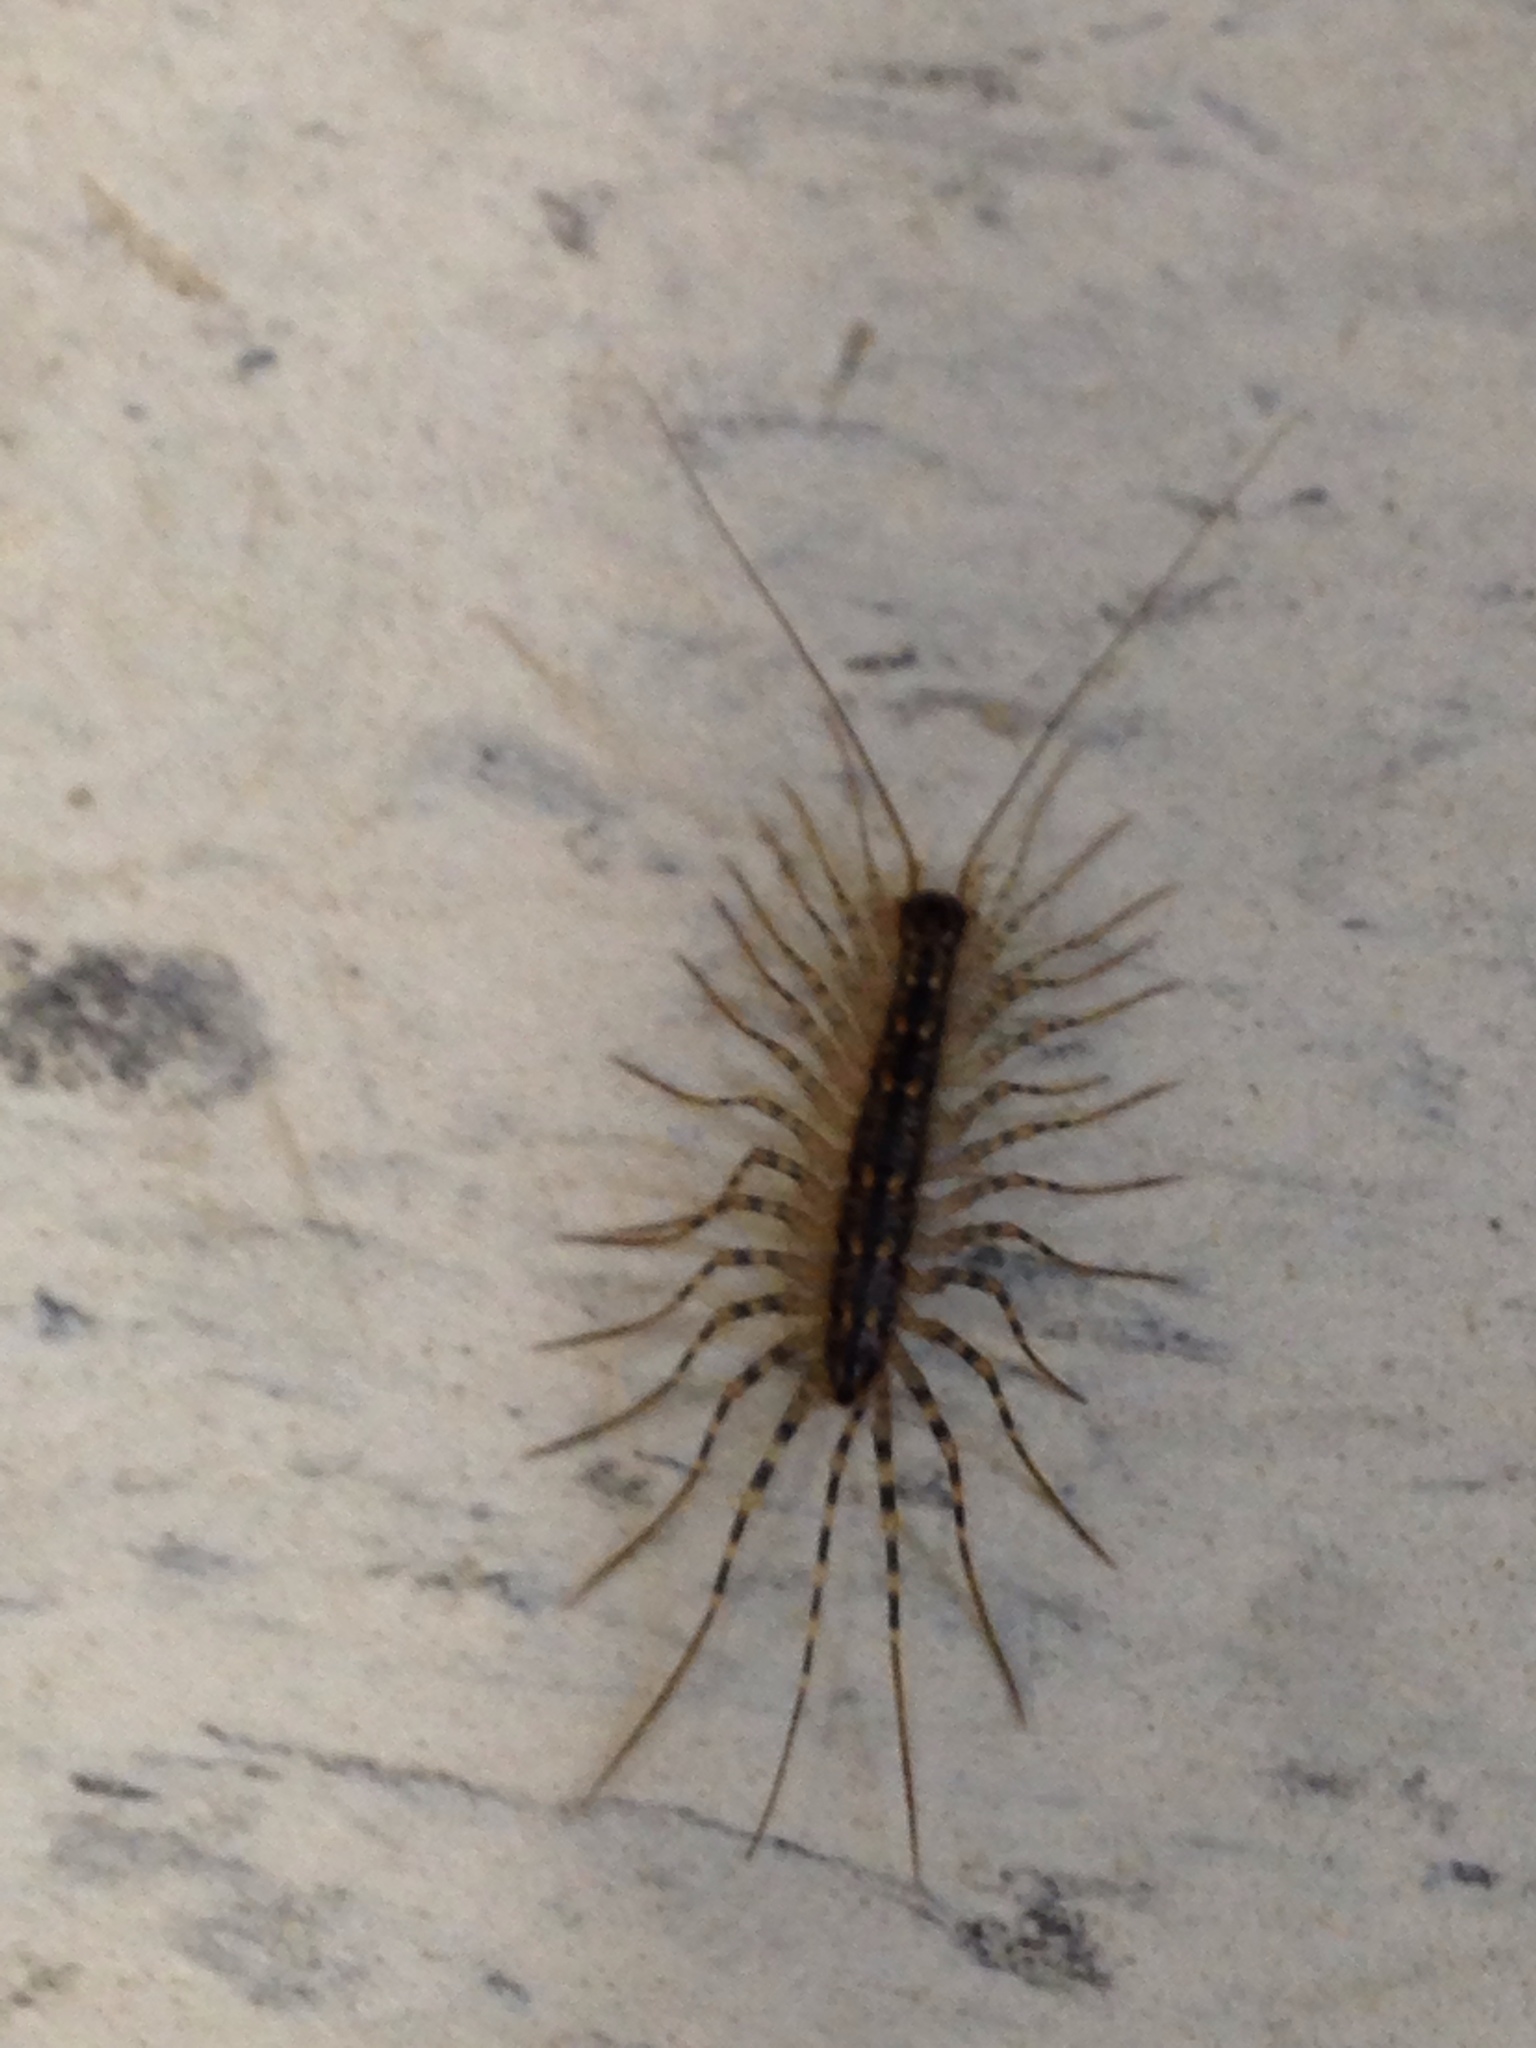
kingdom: Animalia
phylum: Arthropoda
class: Chilopoda
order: Scutigeromorpha
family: Scutigeridae
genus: Thereuonema
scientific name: Thereuonema tuberculata
